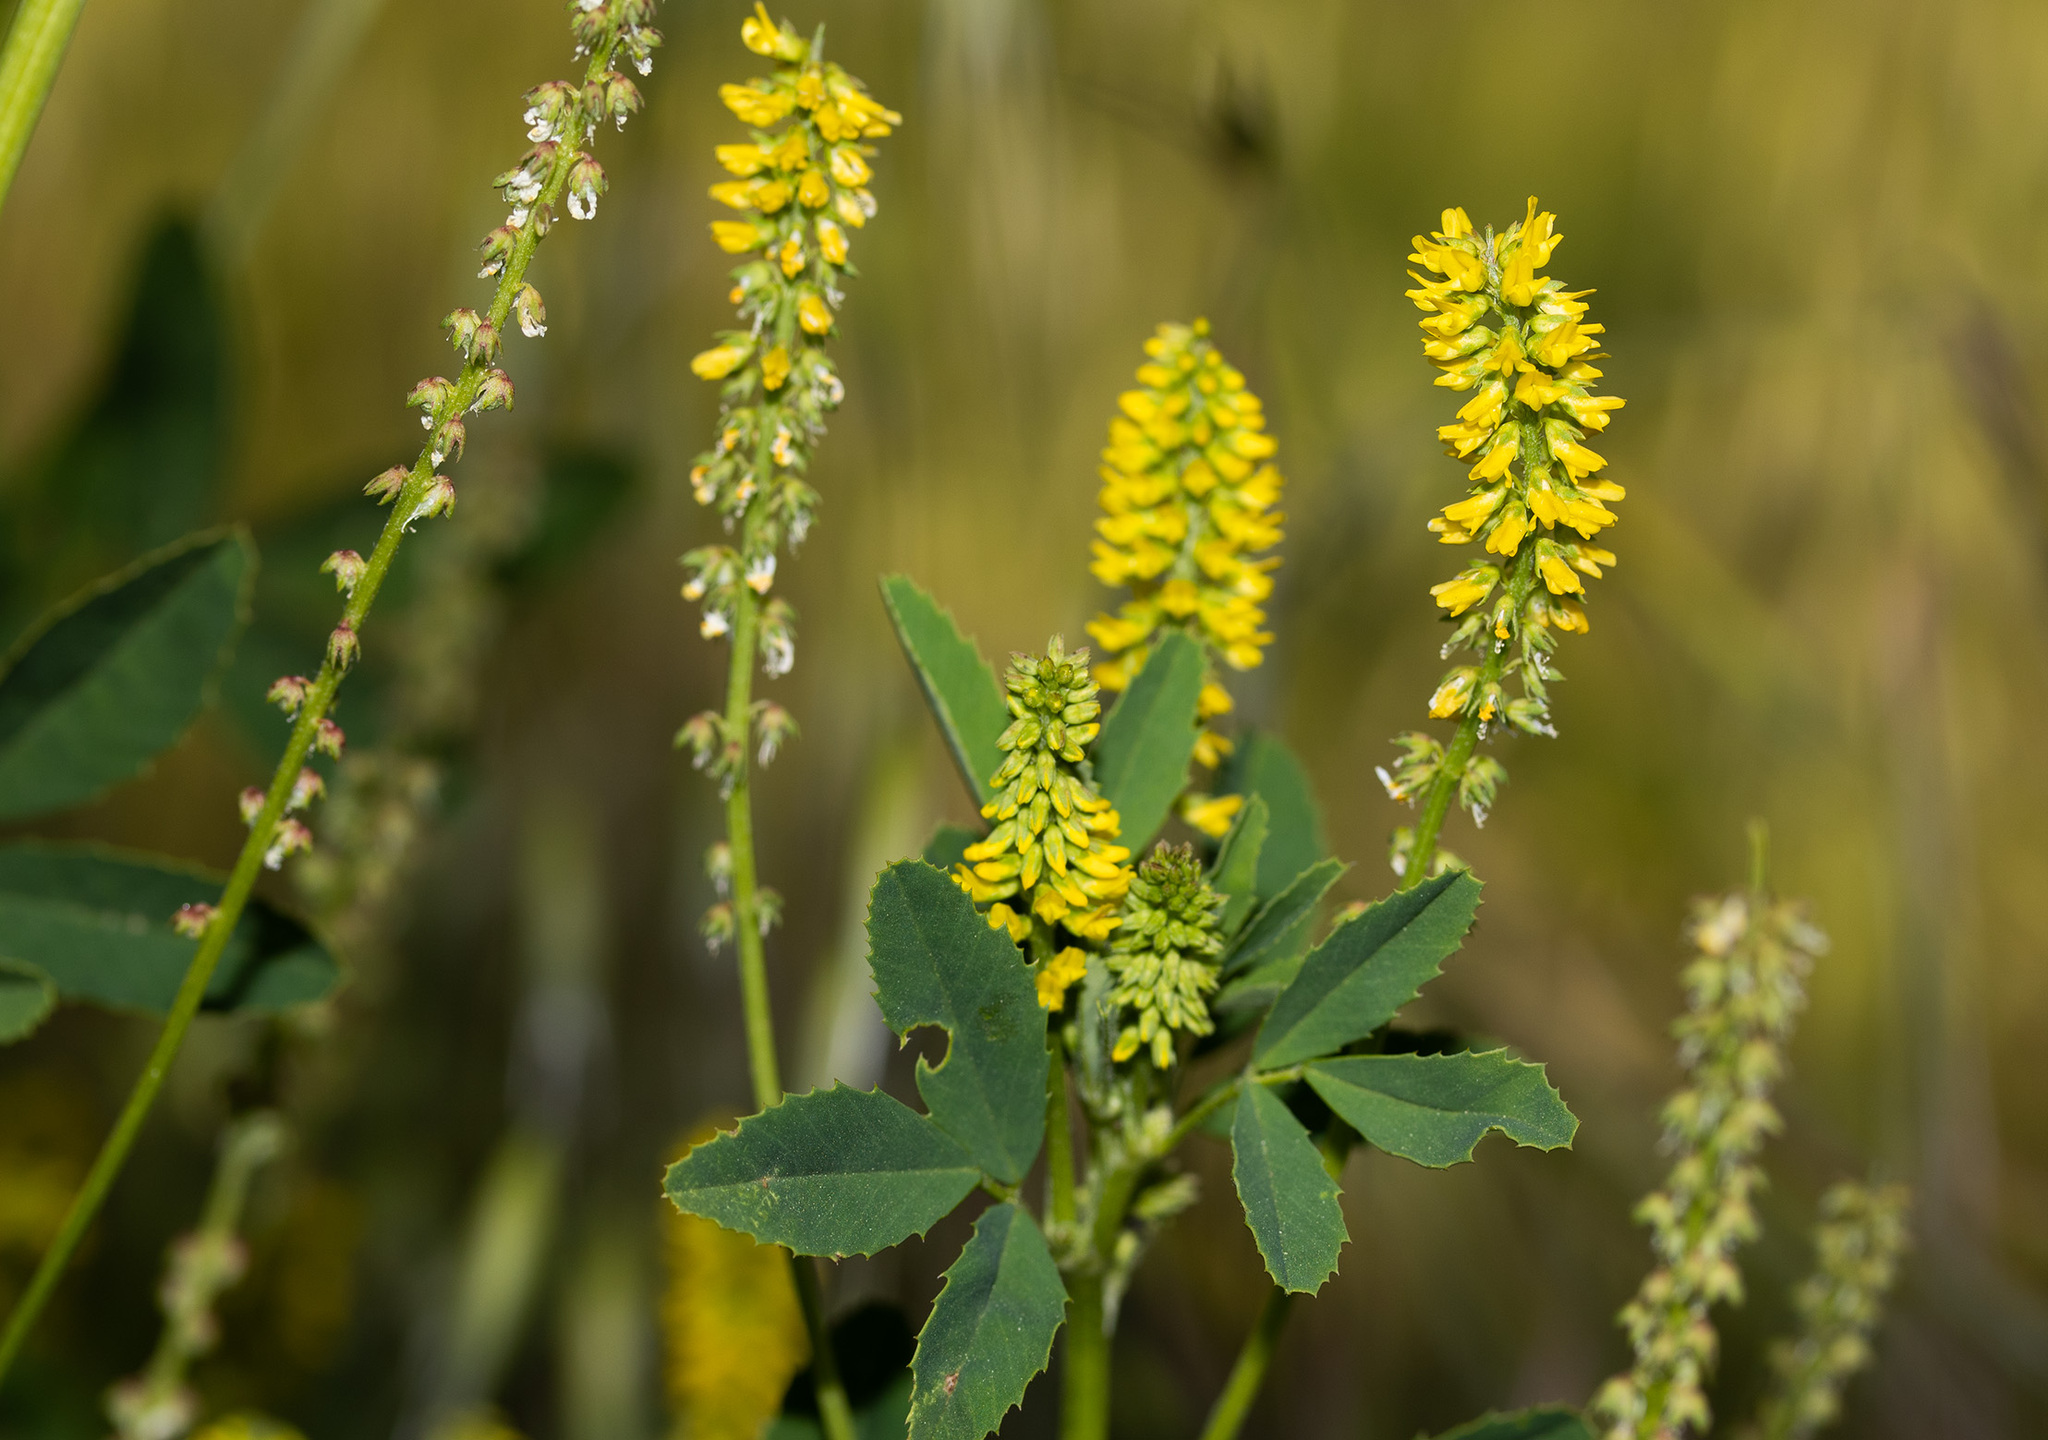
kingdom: Plantae
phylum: Tracheophyta
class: Magnoliopsida
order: Fabales
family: Fabaceae
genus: Melilotus
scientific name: Melilotus indicus
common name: Small melilot
